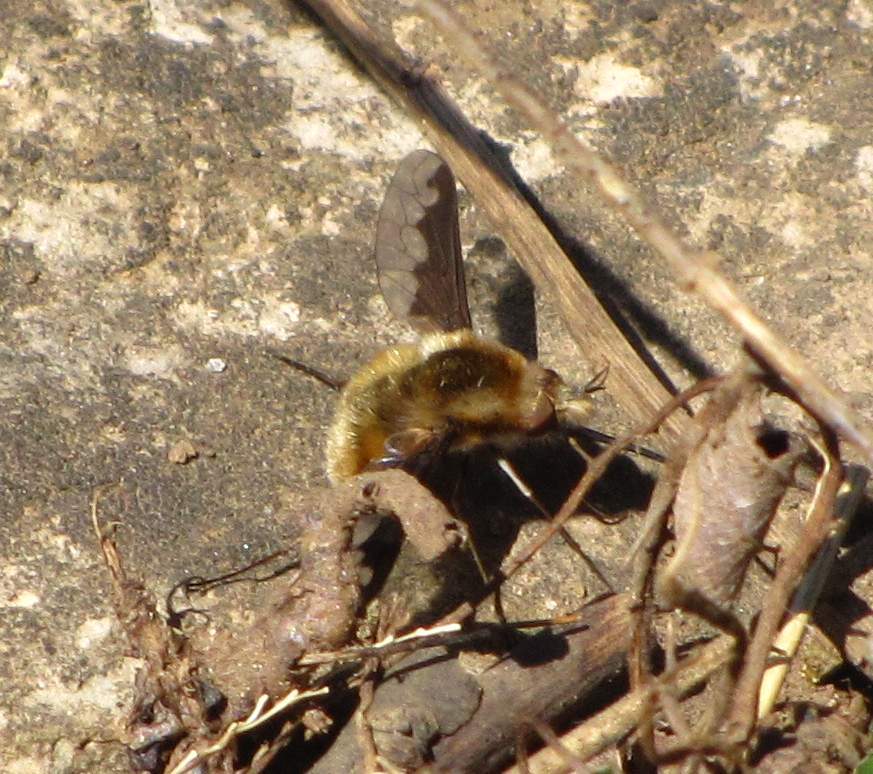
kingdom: Animalia
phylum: Arthropoda
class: Insecta
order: Diptera
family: Bombyliidae
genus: Bombylius
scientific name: Bombylius major
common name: Bee fly
